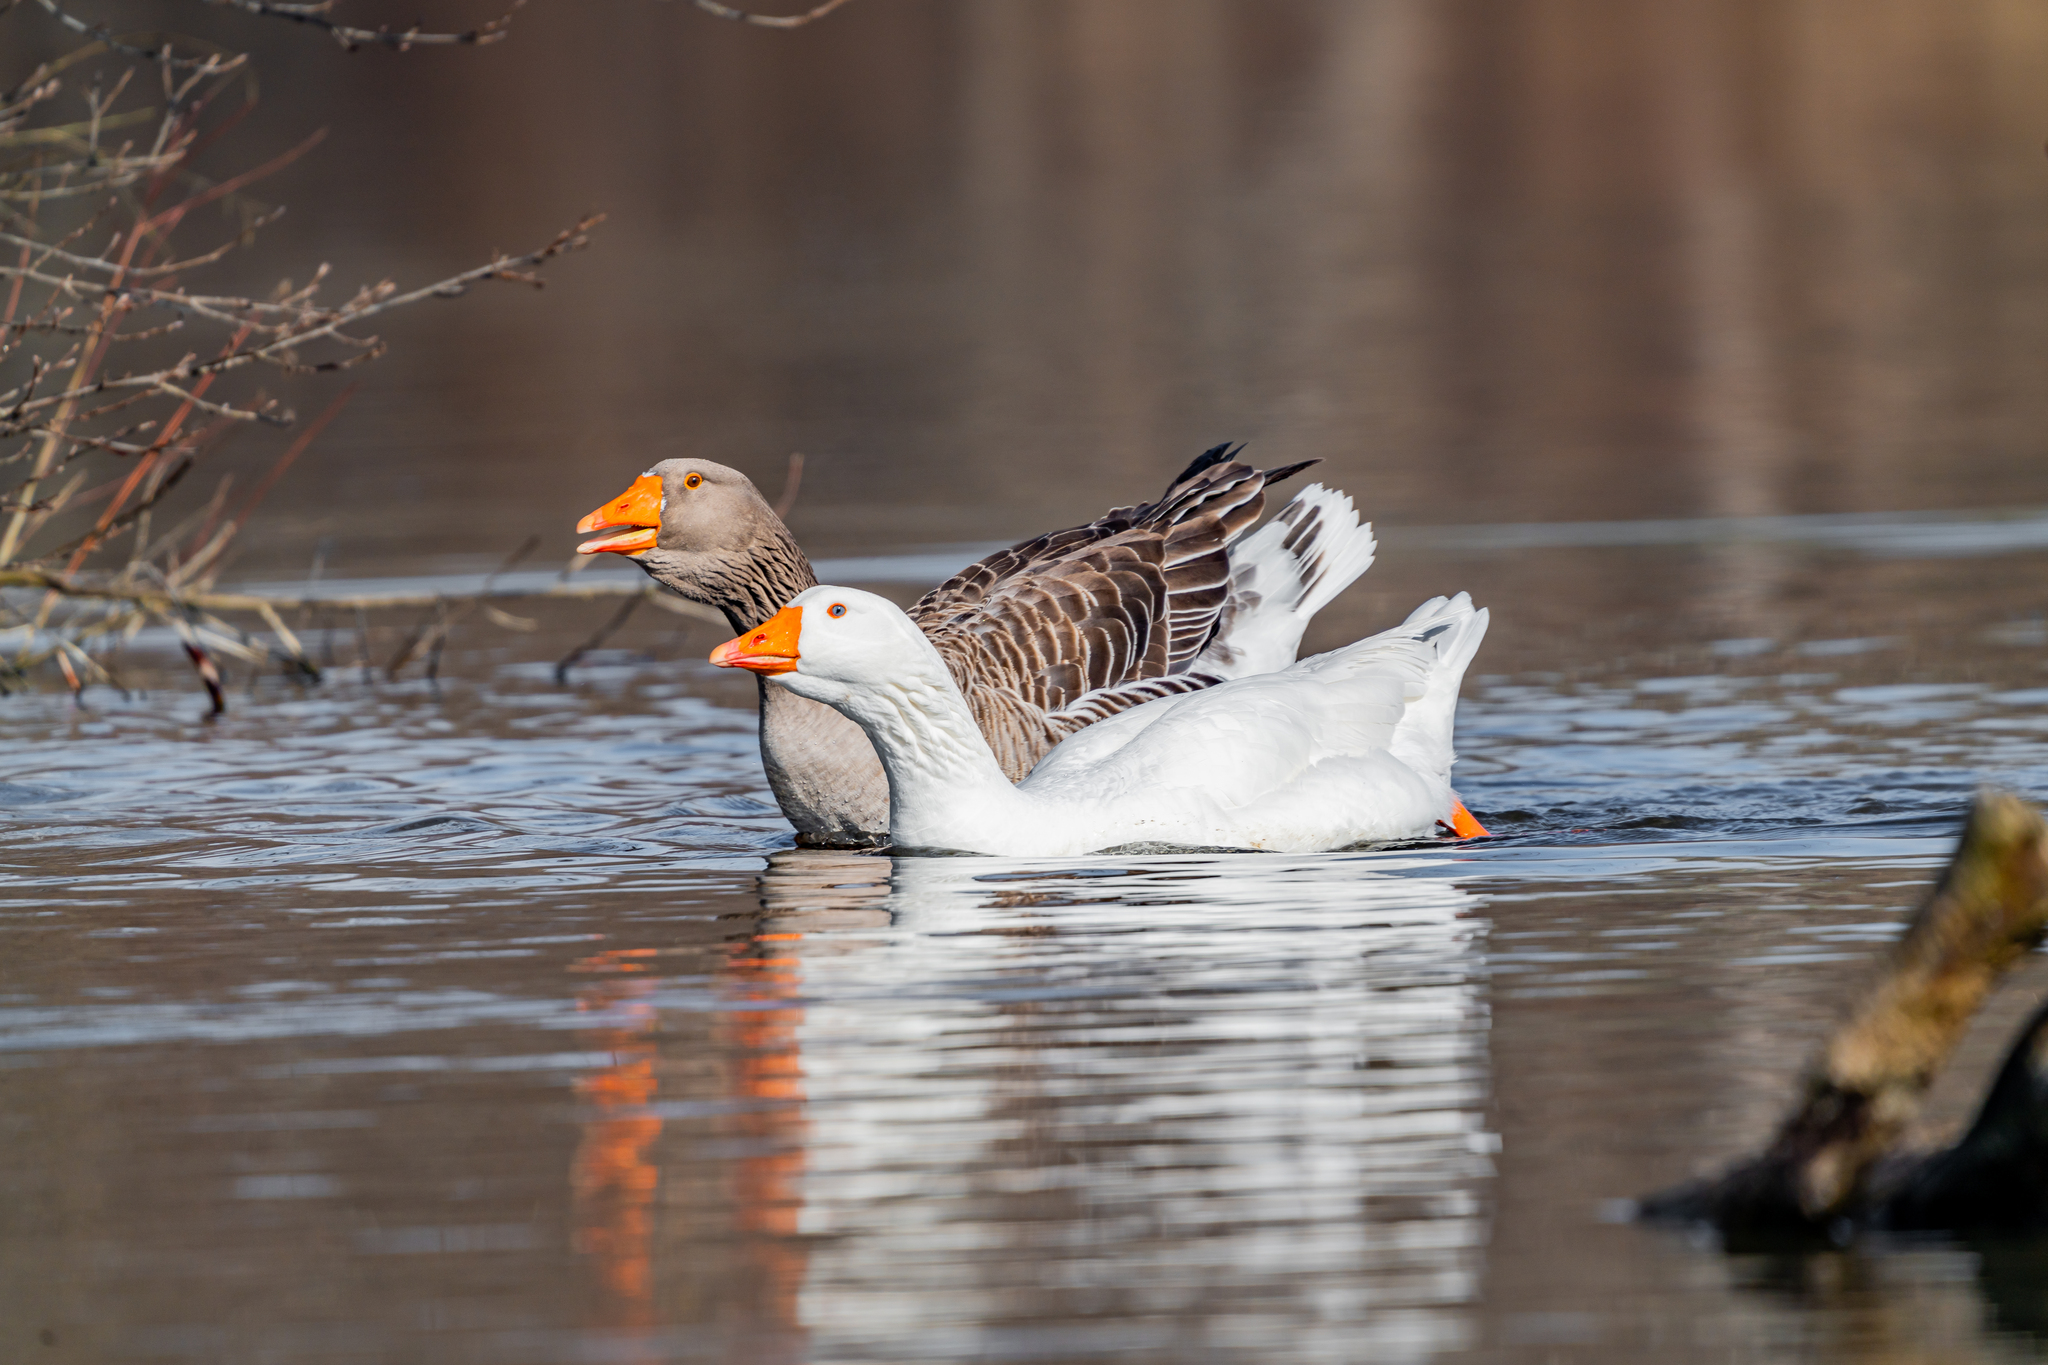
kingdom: Animalia
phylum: Chordata
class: Aves
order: Anseriformes
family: Anatidae
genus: Anser
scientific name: Anser anser
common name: Greylag goose
